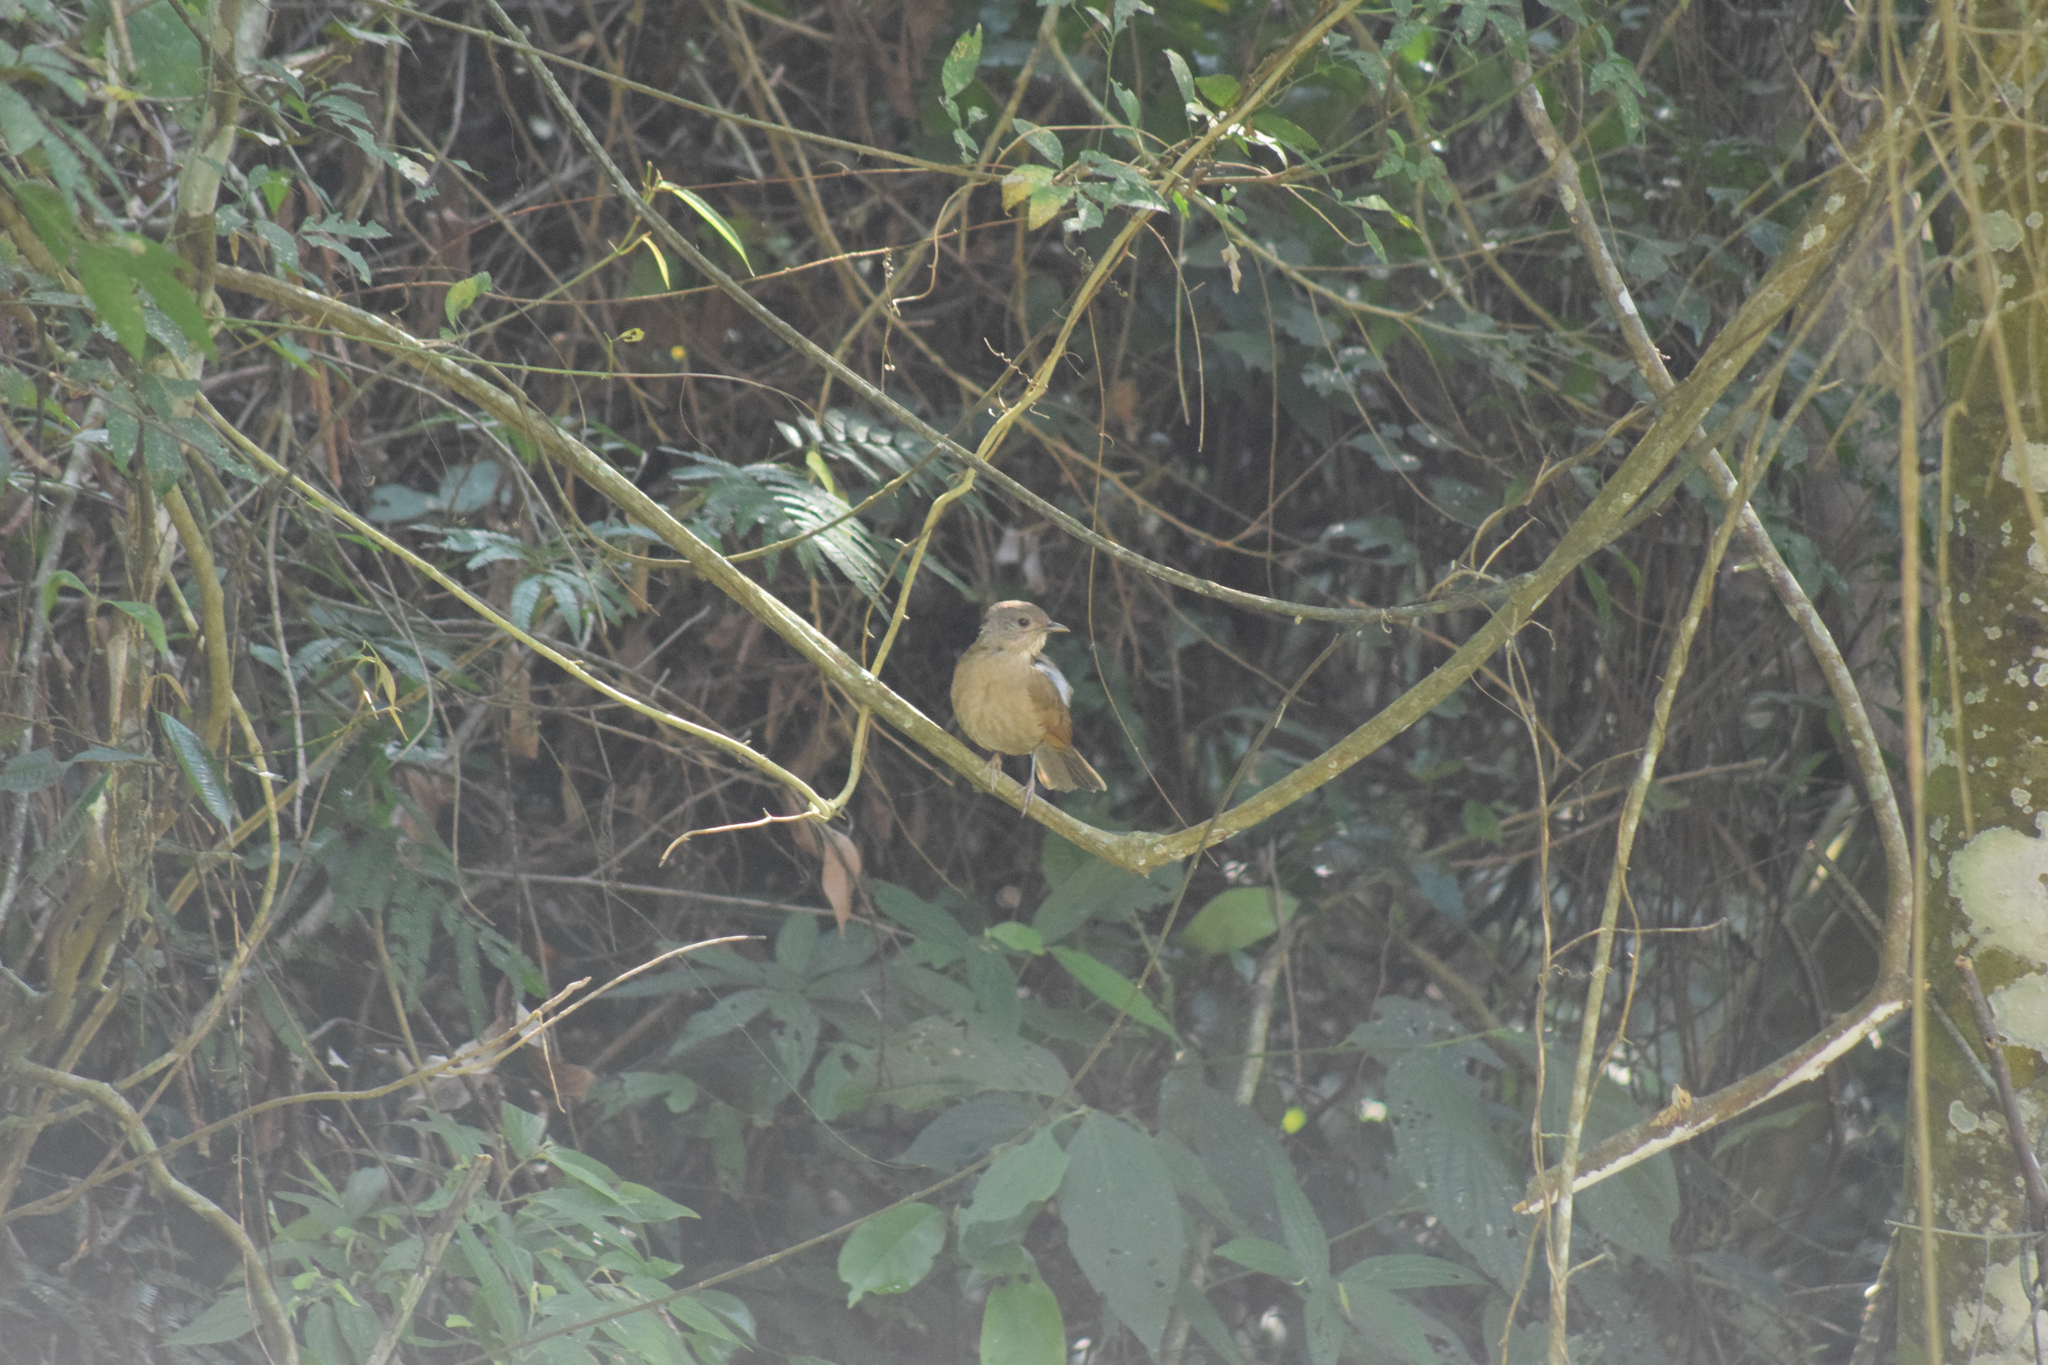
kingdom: Animalia
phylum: Chordata
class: Aves
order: Passeriformes
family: Turdidae
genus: Turdus
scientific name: Turdus leucomelas
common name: Pale-breasted thrush
